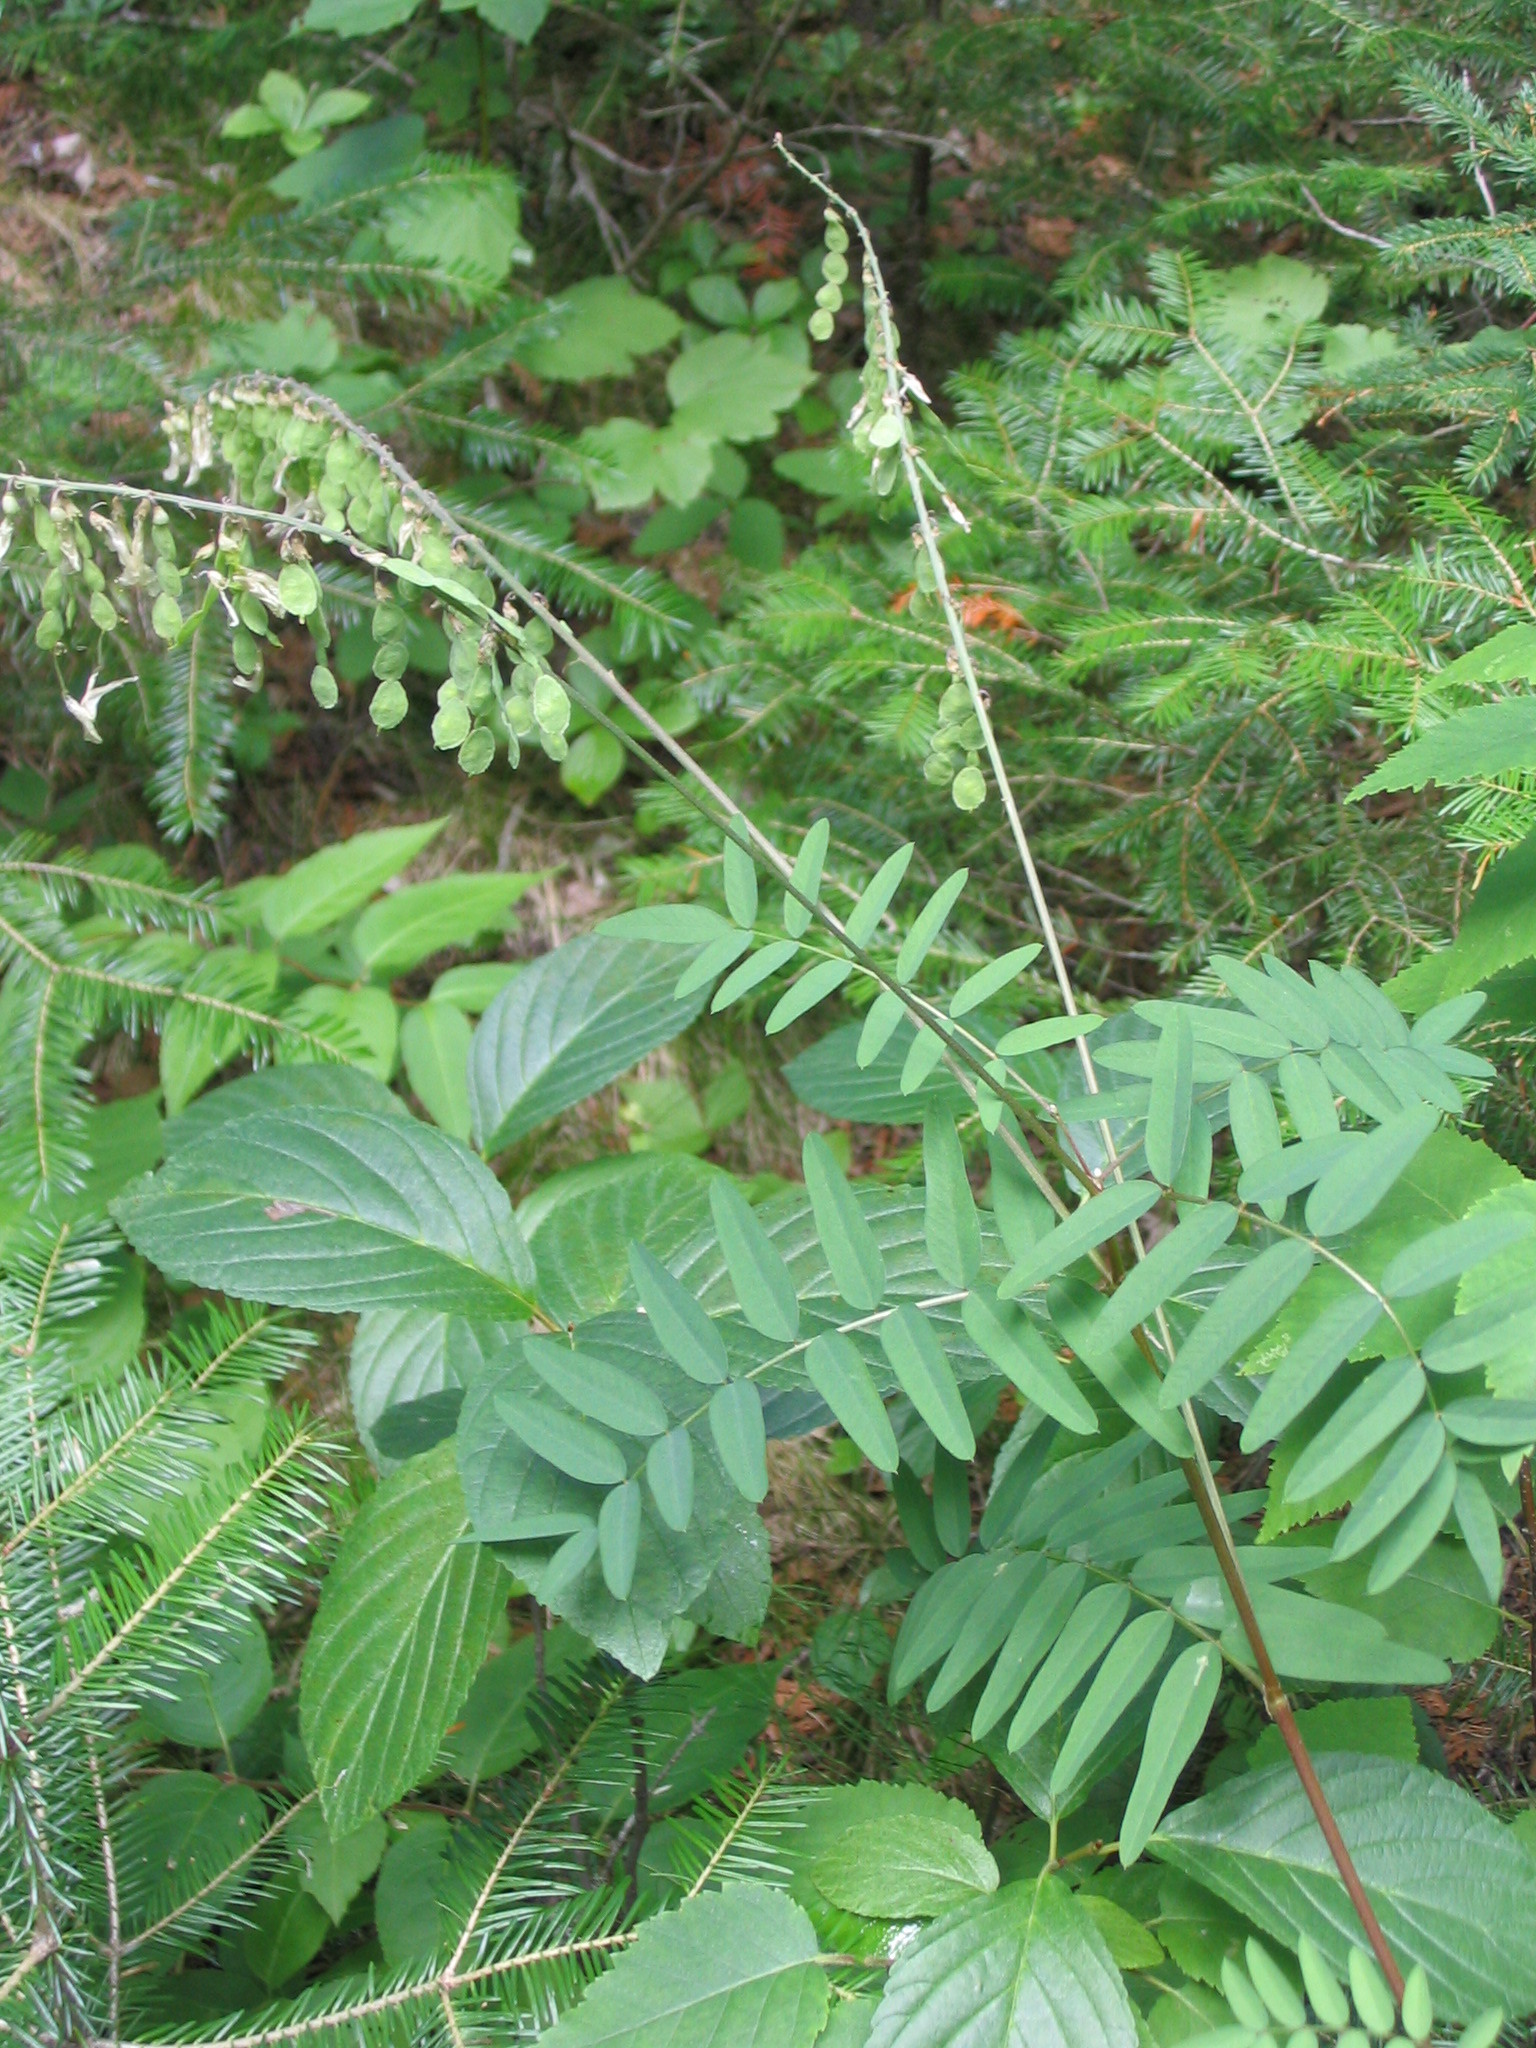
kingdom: Plantae
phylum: Tracheophyta
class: Magnoliopsida
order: Fabales
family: Fabaceae
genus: Hedysarum
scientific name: Hedysarum alpinum
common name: Alpine sweet-vetch
